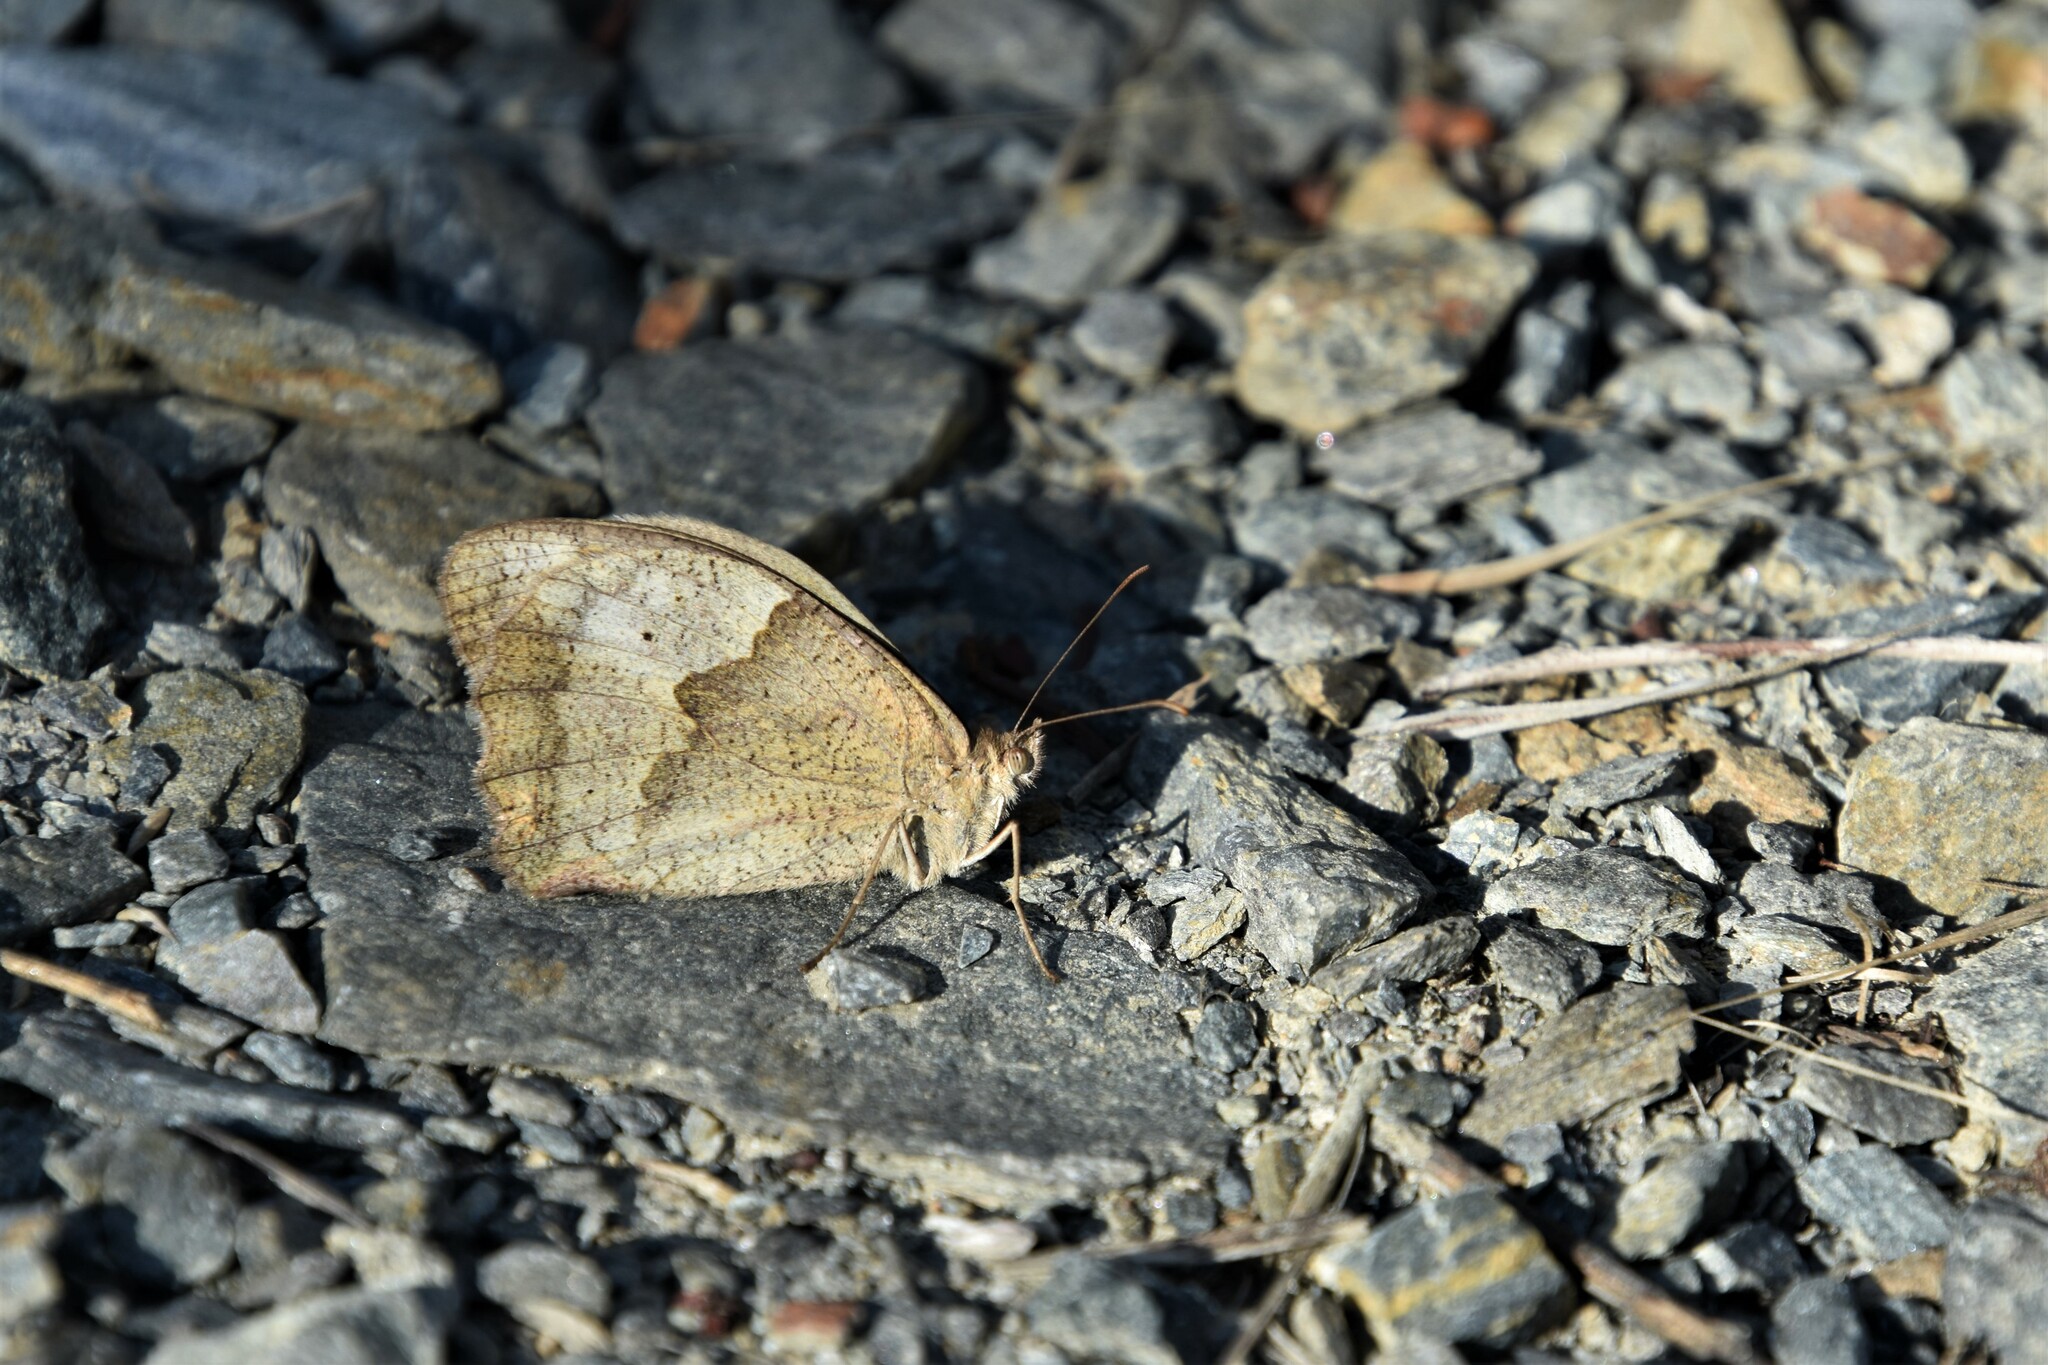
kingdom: Animalia
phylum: Arthropoda
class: Insecta
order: Lepidoptera
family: Nymphalidae
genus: Maniola
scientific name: Maniola jurtina
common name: Meadow brown
